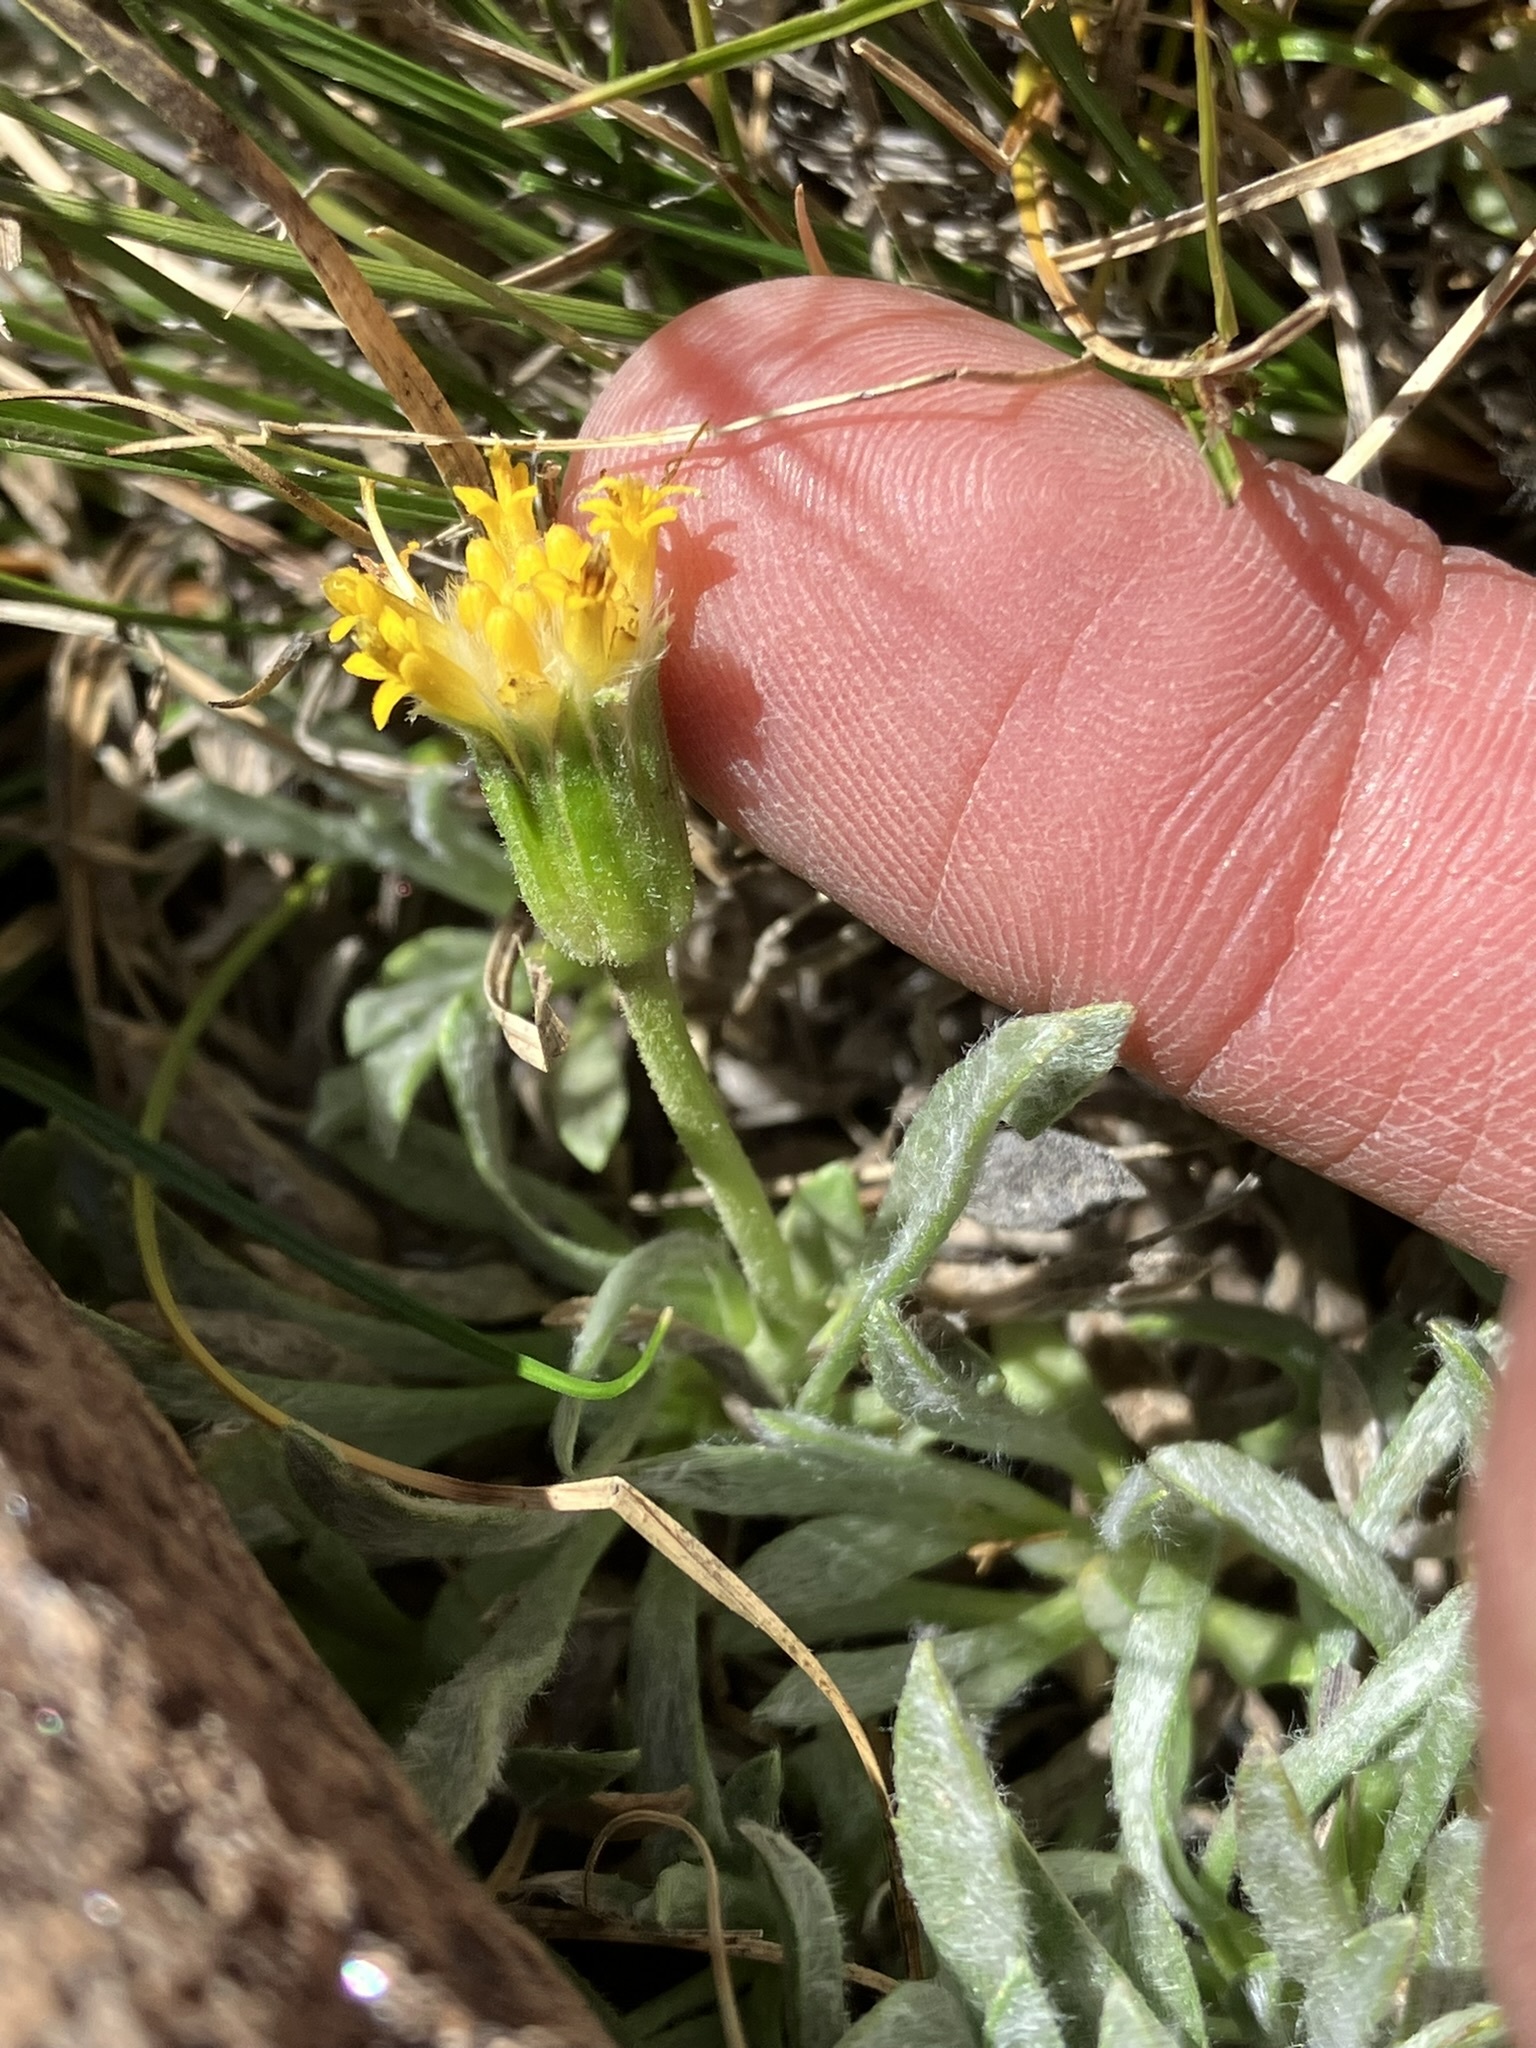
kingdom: Plantae
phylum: Tracheophyta
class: Magnoliopsida
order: Asterales
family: Asteraceae
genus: Raillardella
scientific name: Raillardella argentea
